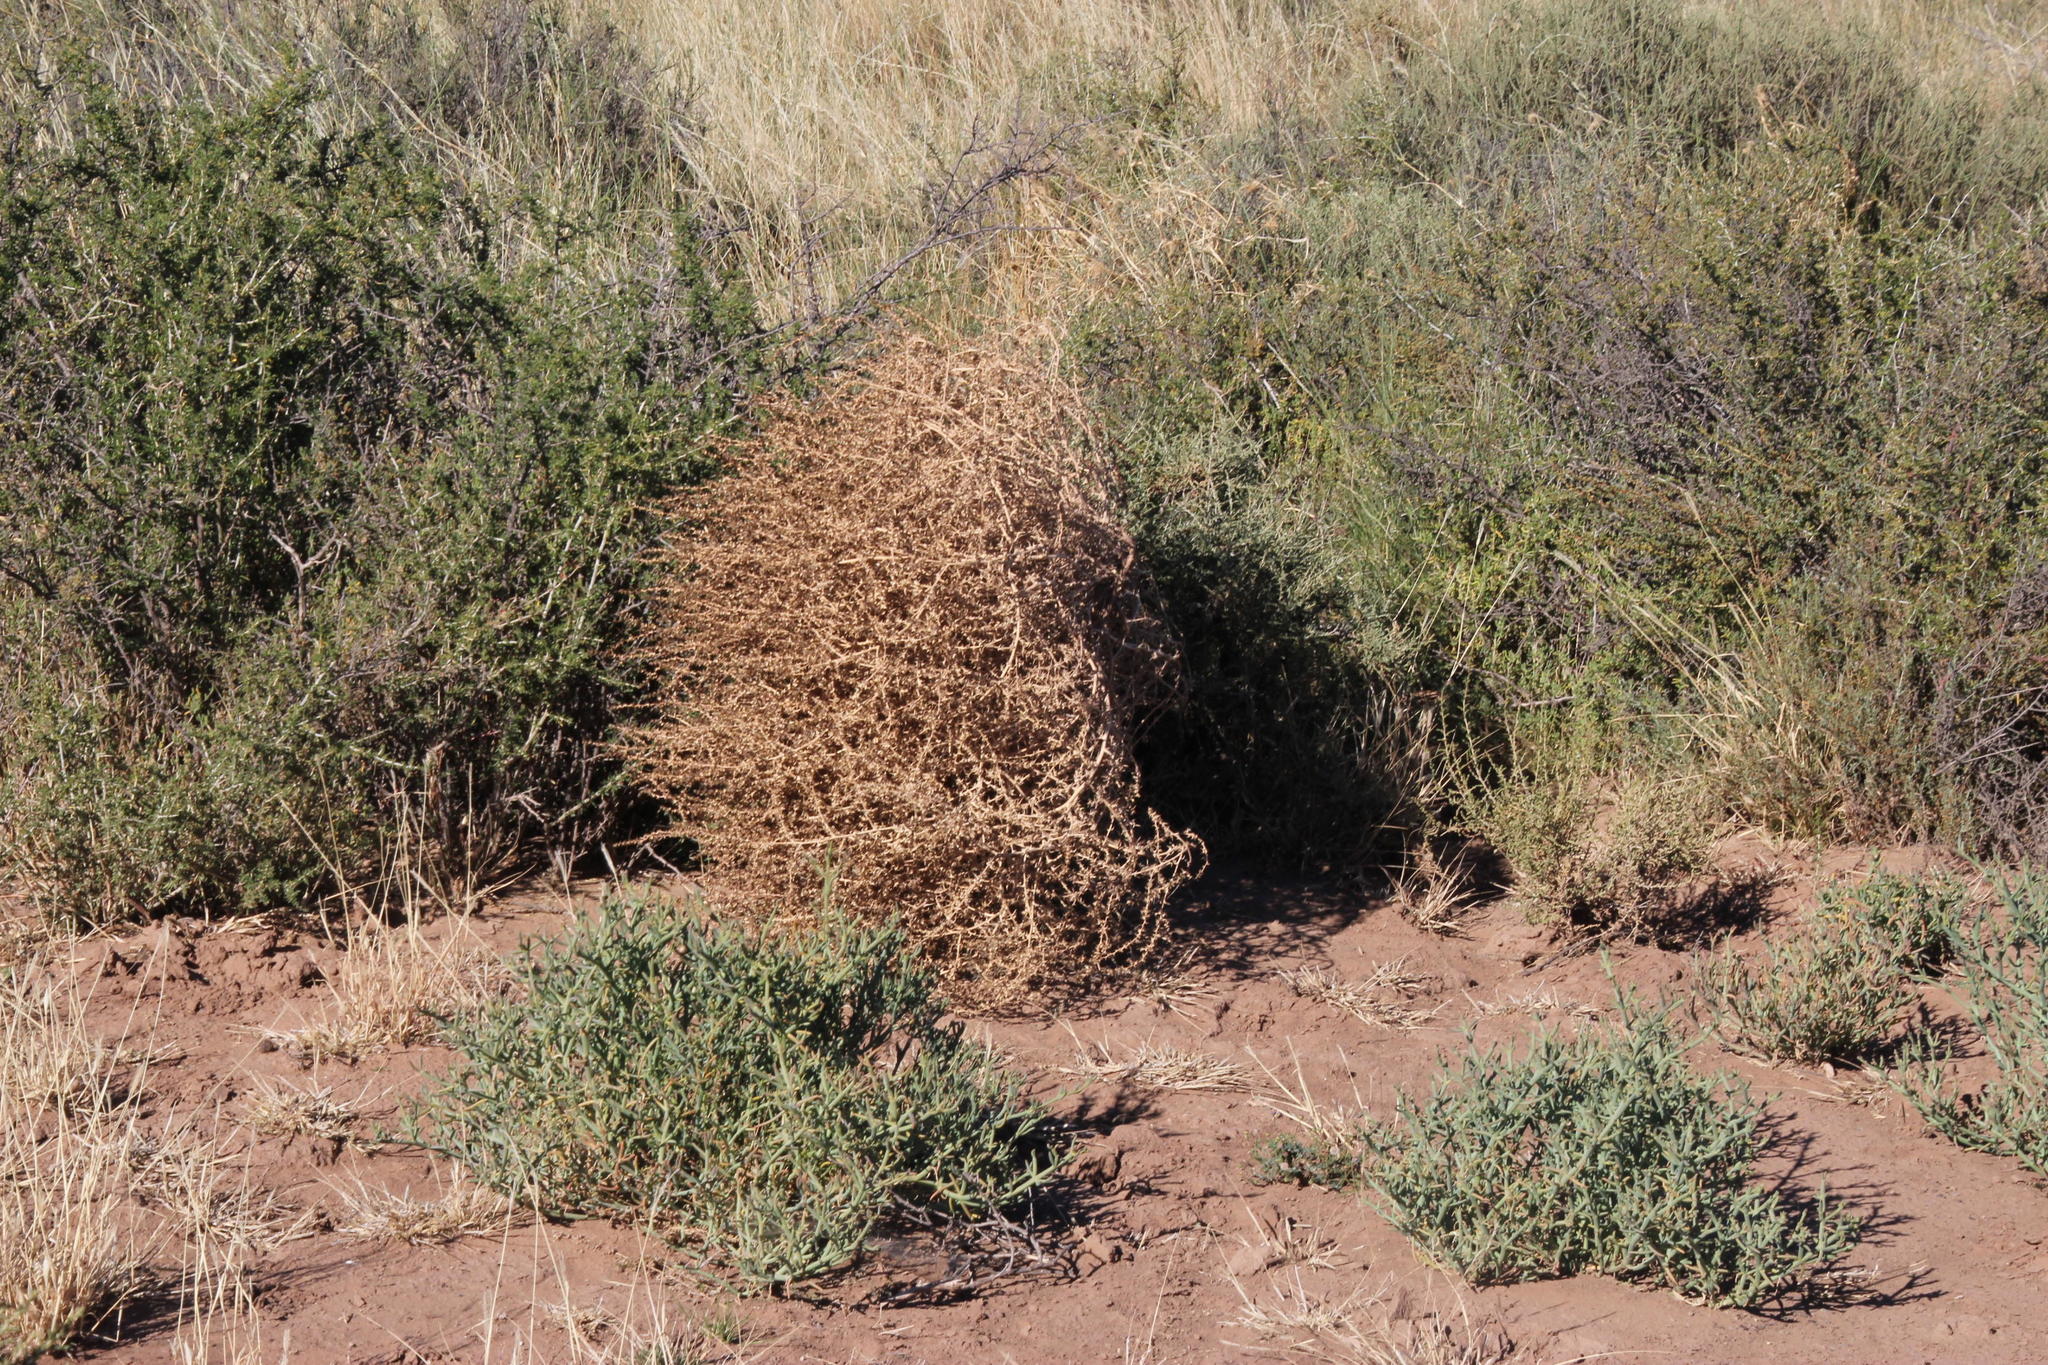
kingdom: Plantae
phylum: Tracheophyta
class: Magnoliopsida
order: Caryophyllales
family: Amaranthaceae
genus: Salsola
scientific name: Salsola kali
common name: Saltwort
